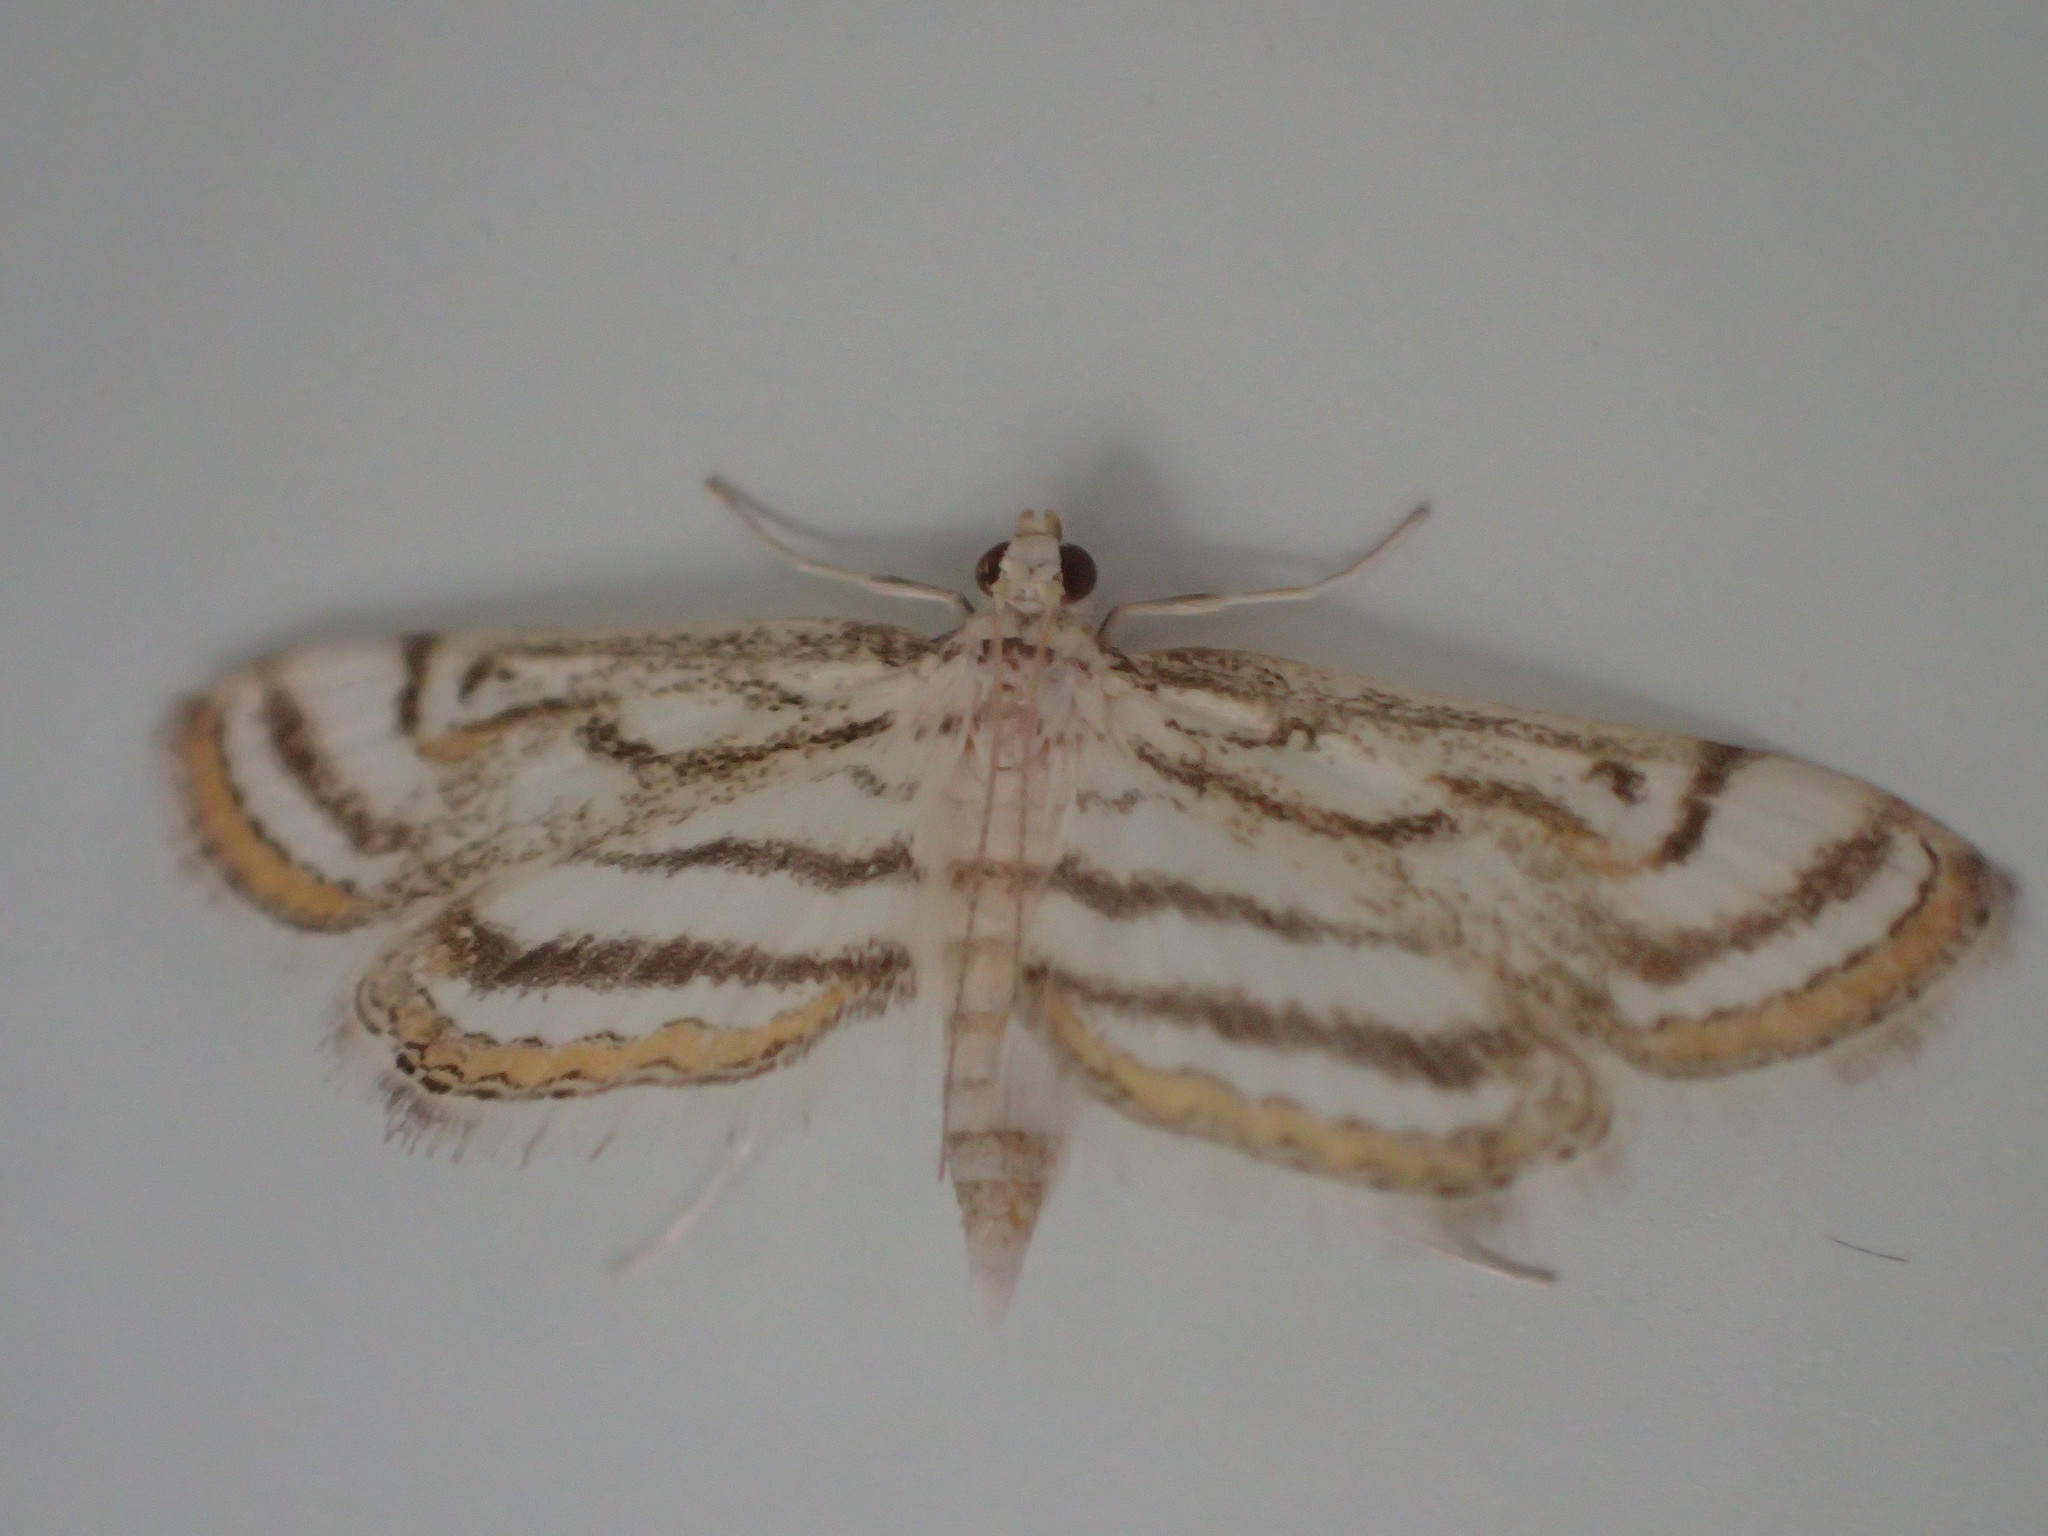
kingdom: Animalia
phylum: Arthropoda
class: Insecta
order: Lepidoptera
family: Crambidae
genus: Parapoynx
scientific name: Parapoynx badiusalis
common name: Chestnut-marked pondweed moth
